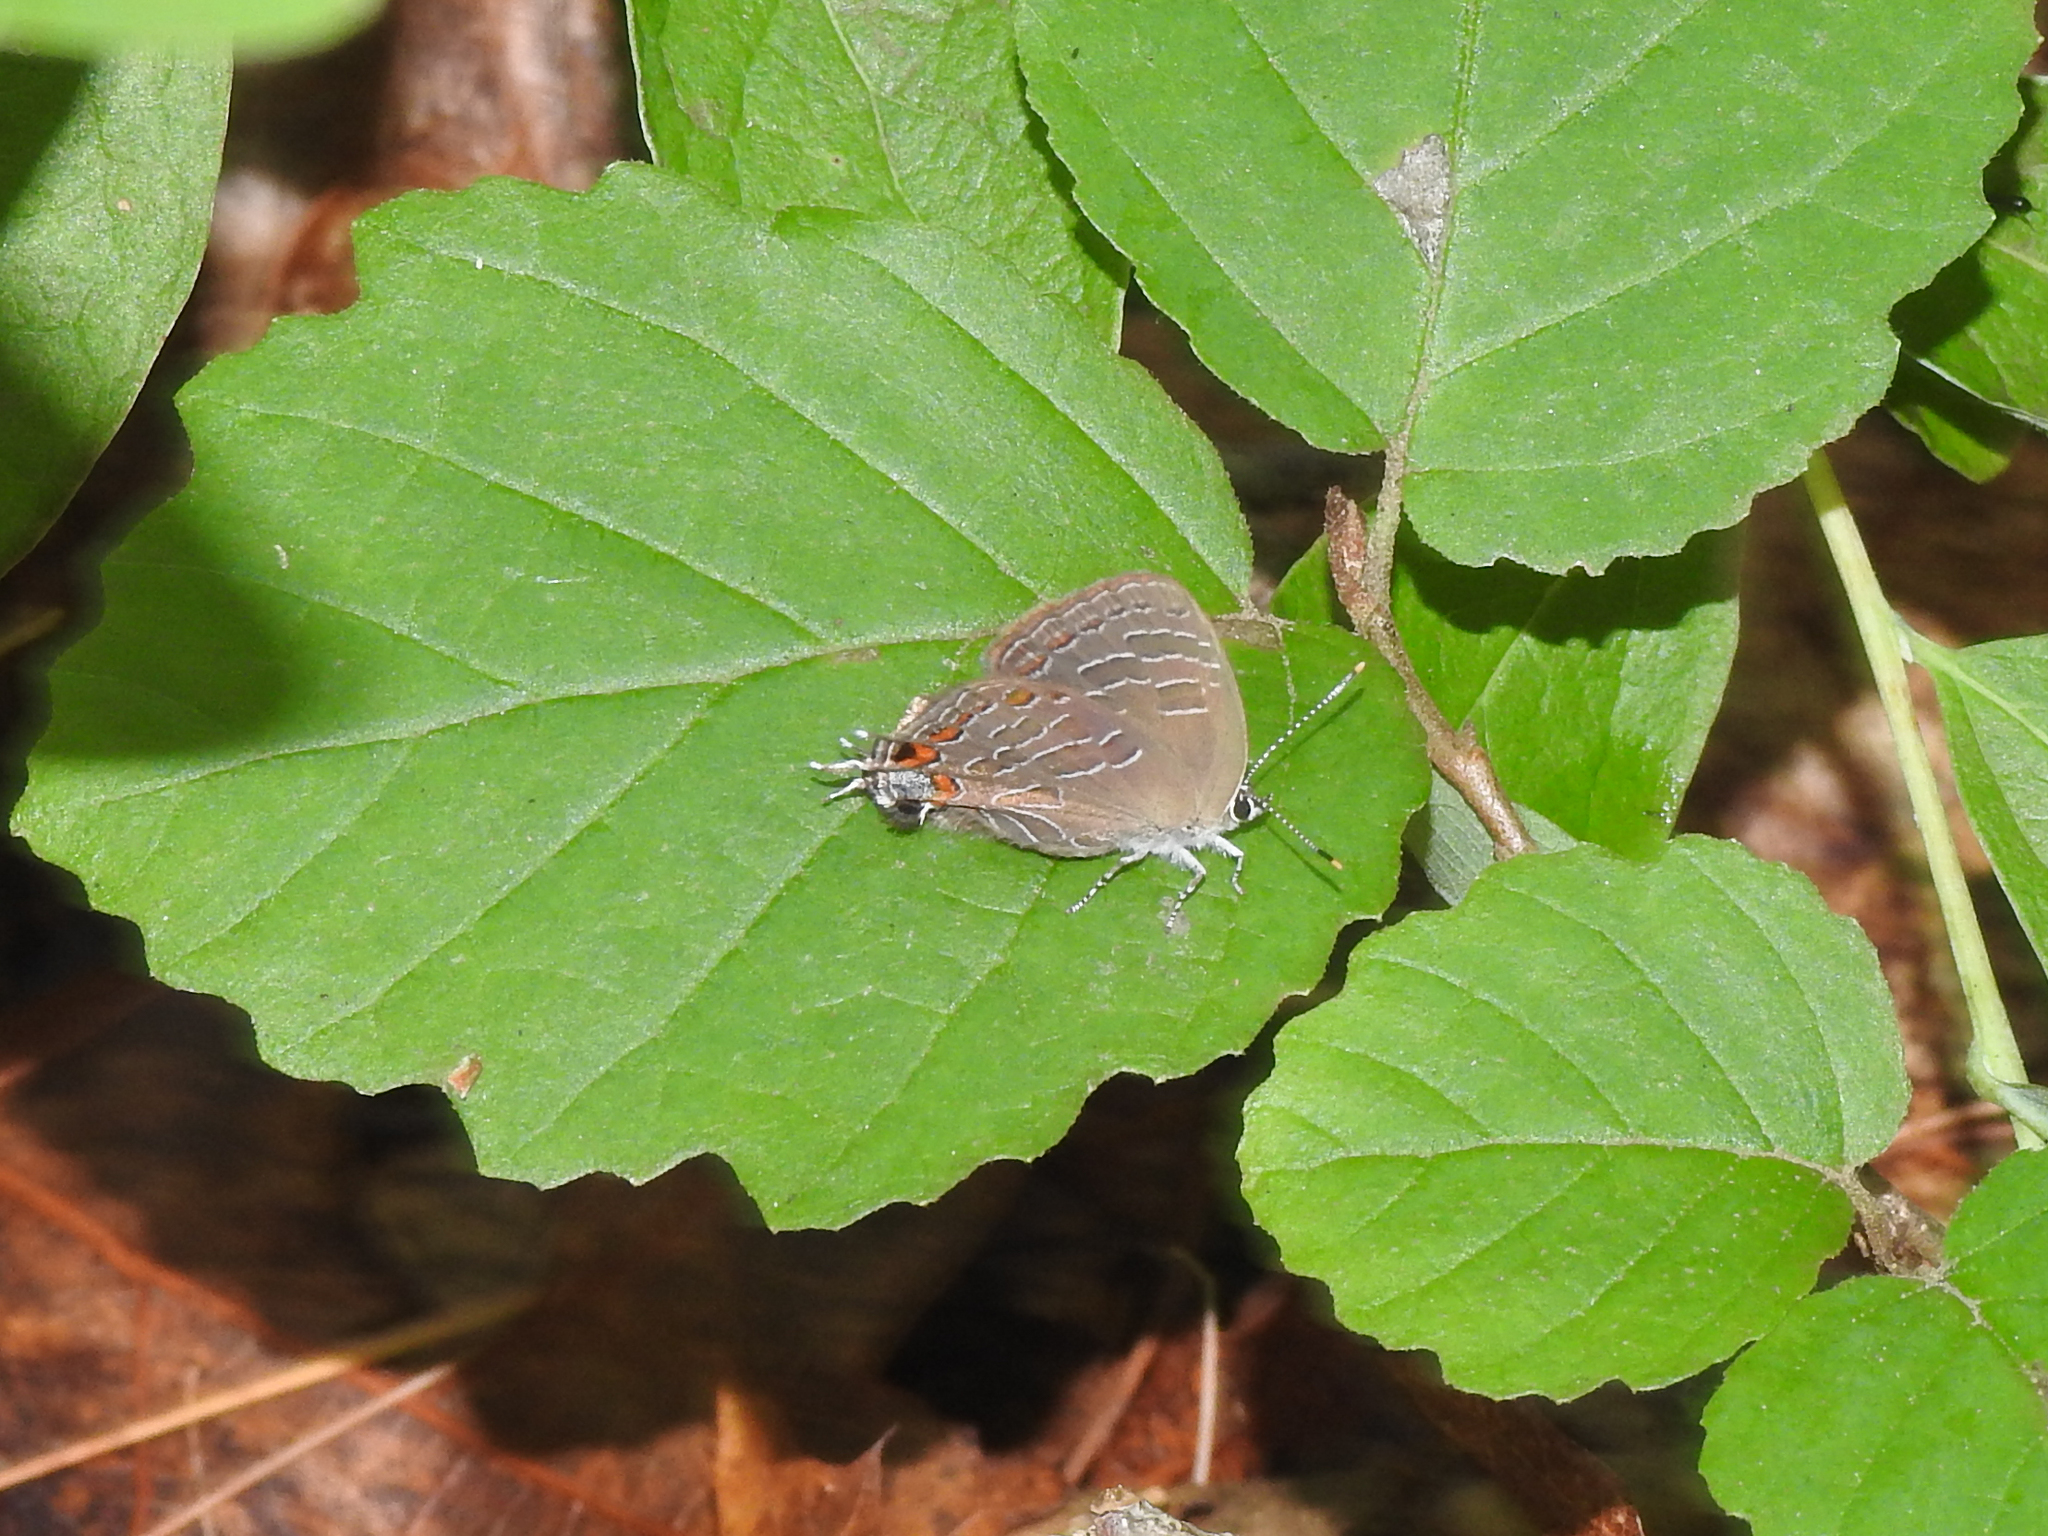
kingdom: Animalia
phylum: Arthropoda
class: Insecta
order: Lepidoptera
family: Lycaenidae
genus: Satyrium
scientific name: Satyrium liparops
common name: Striped hairstreak
